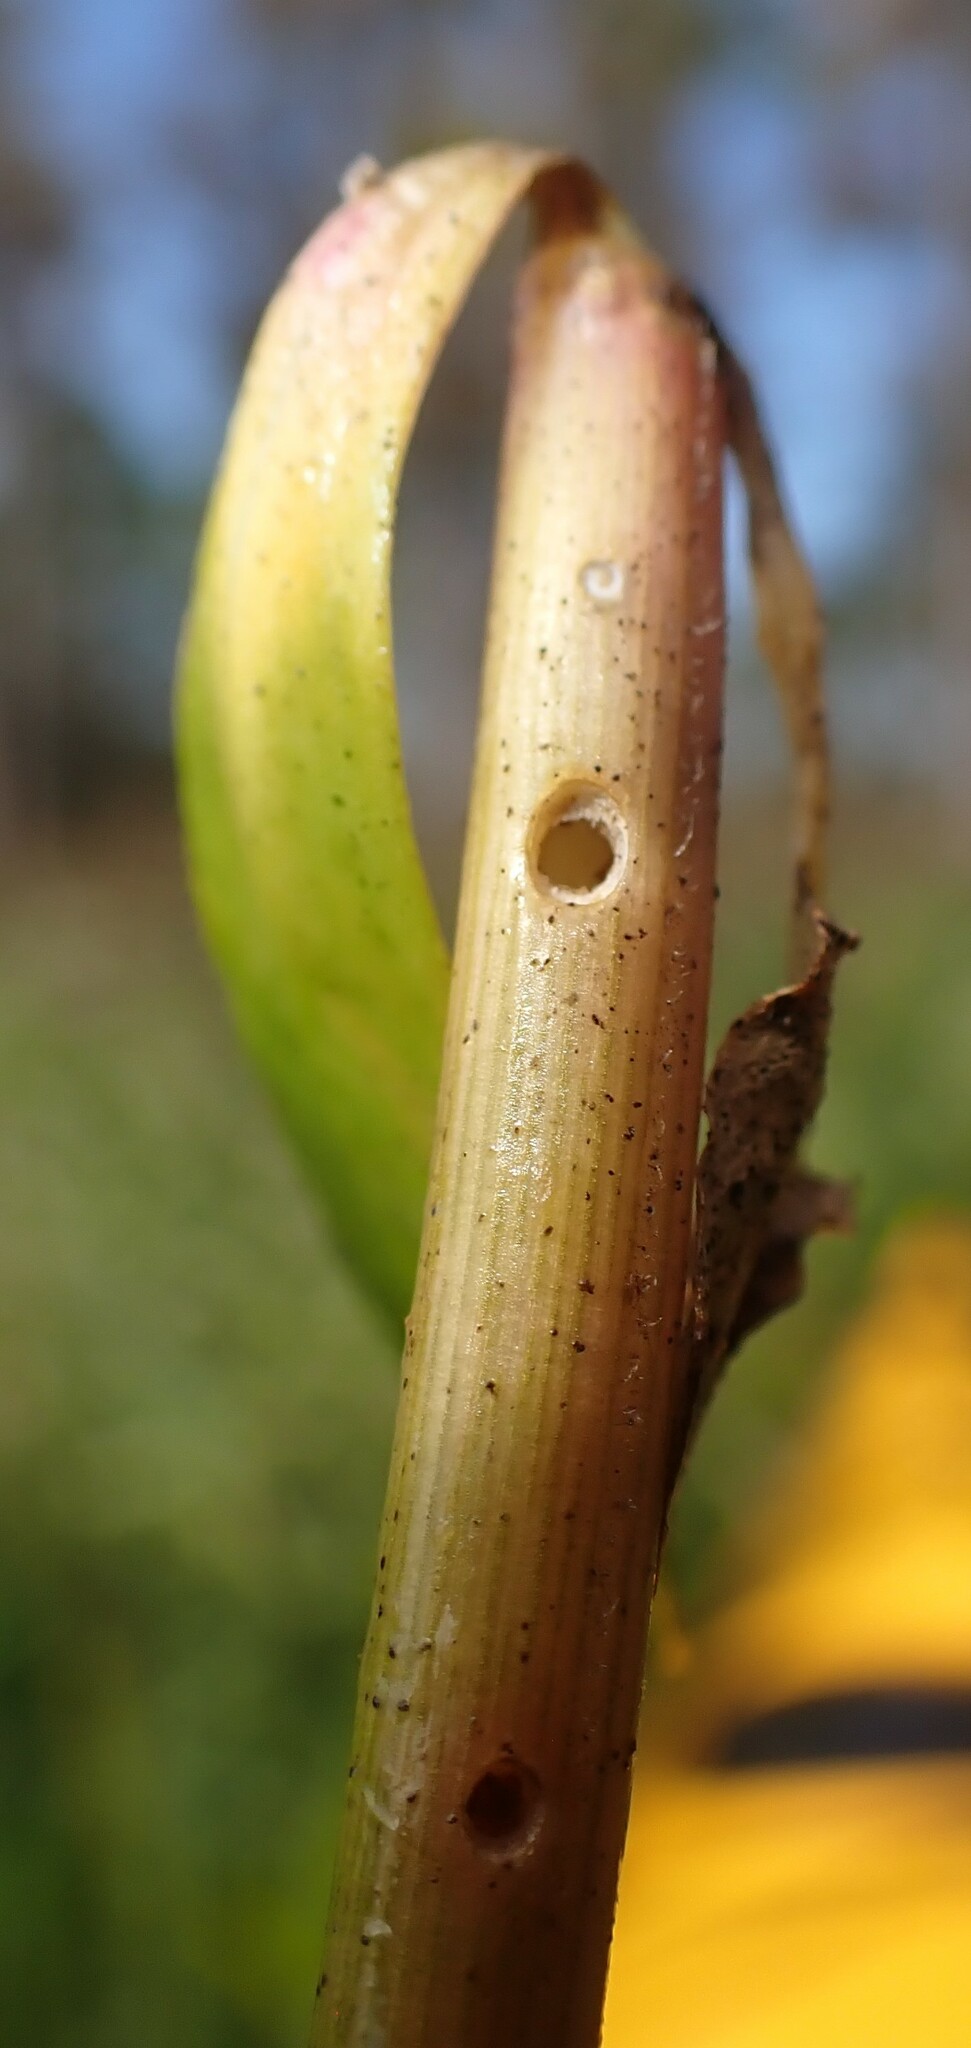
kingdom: Animalia
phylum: Arthropoda
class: Insecta
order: Coleoptera
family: Chrysomelidae
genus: Agasicles
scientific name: Agasicles hygrophila
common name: Alligatorweed flea beetle
